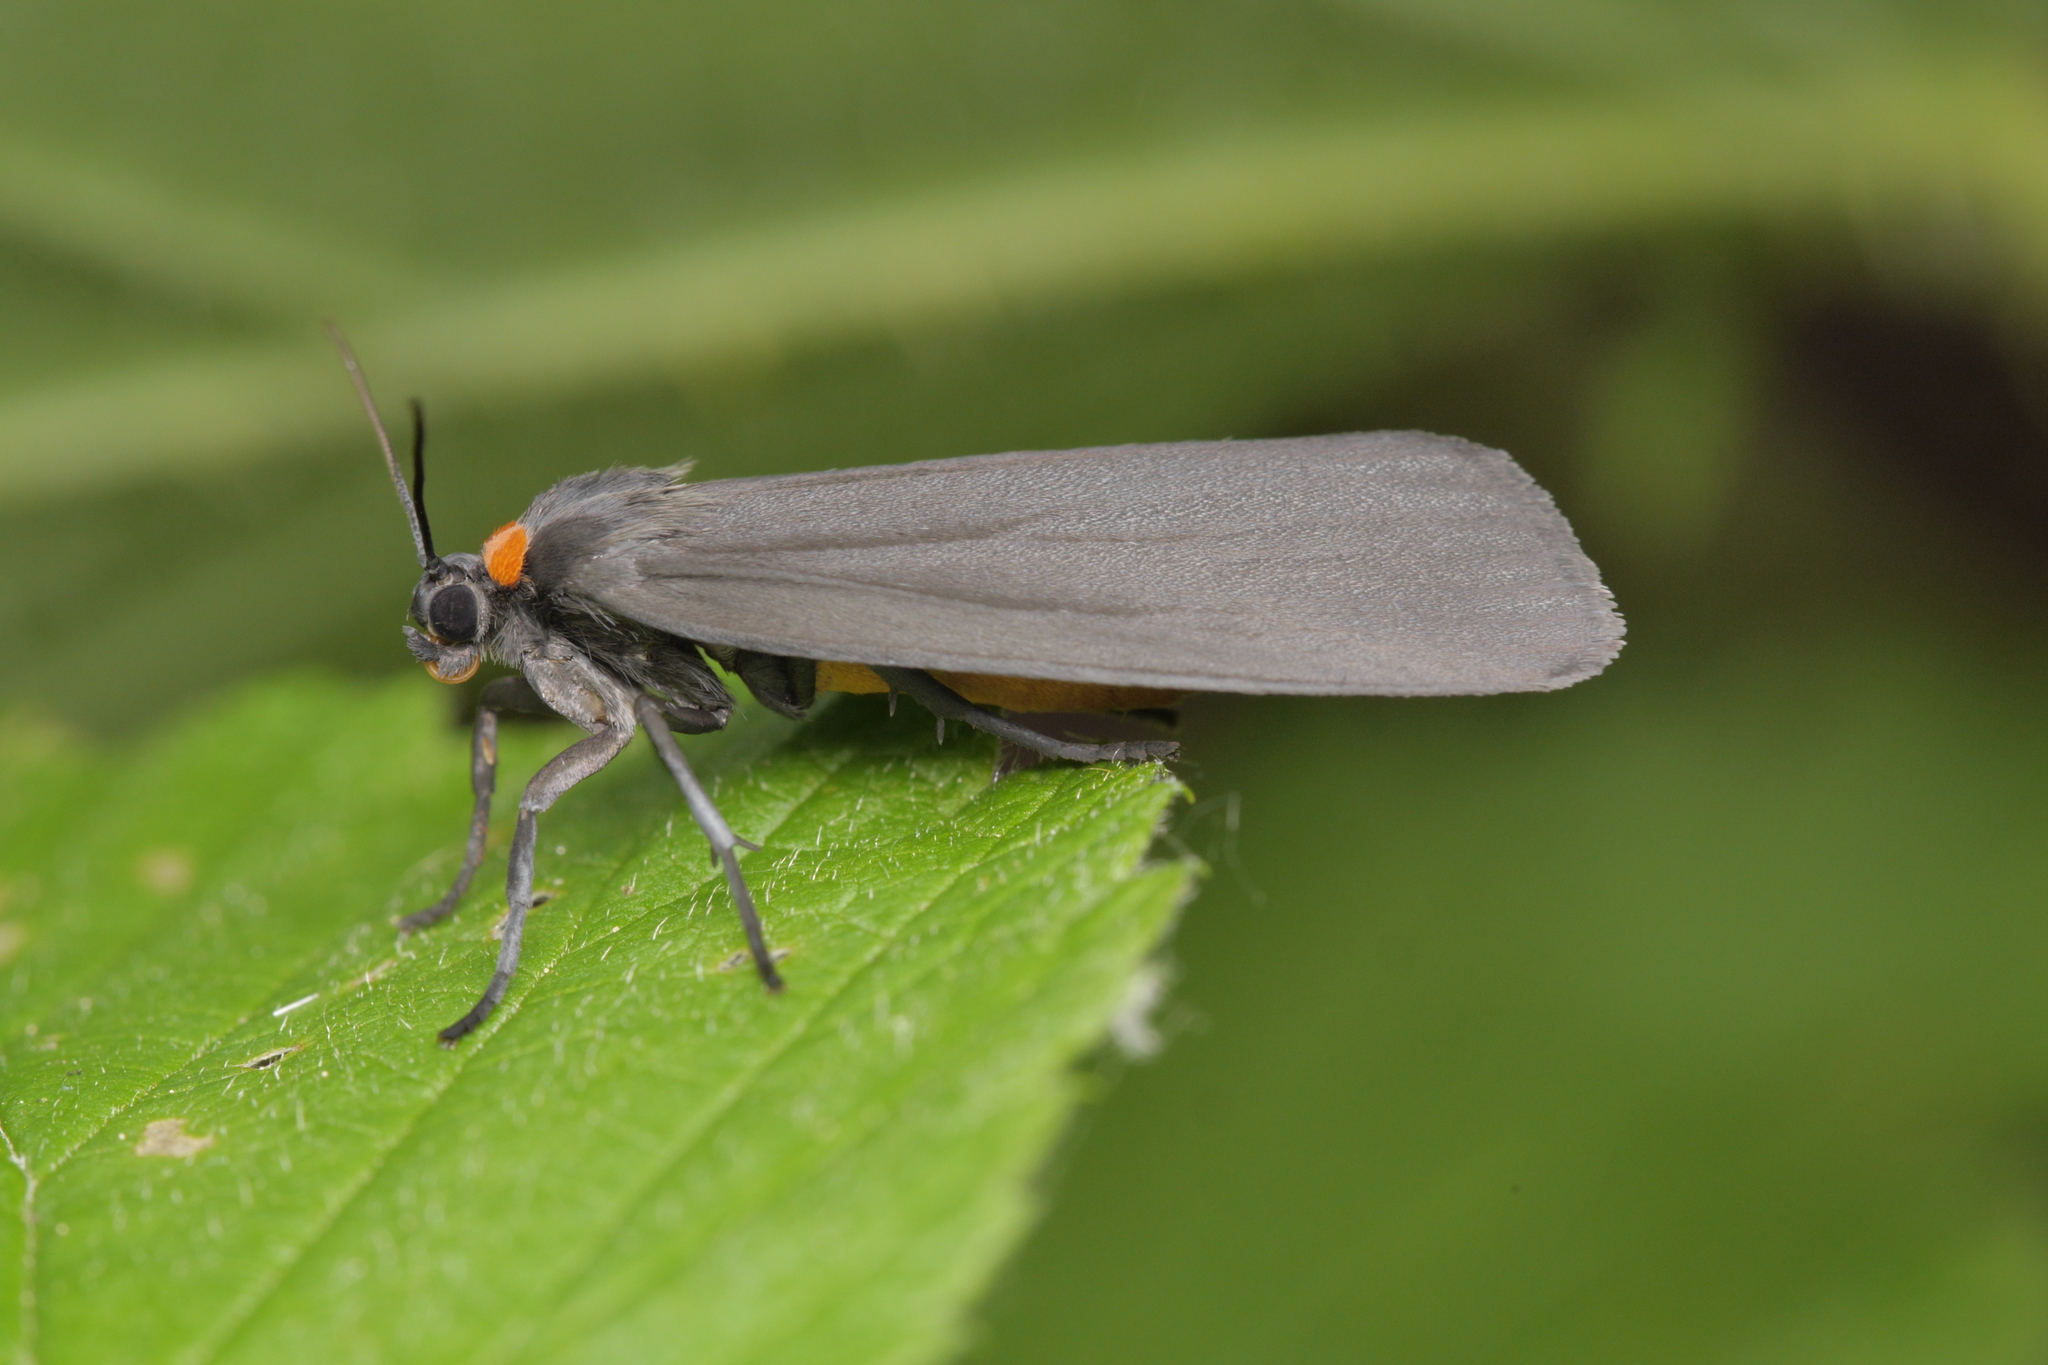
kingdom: Animalia
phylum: Arthropoda
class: Insecta
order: Lepidoptera
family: Erebidae
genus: Atolmis
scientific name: Atolmis rubricollis
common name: Red-necked footman
